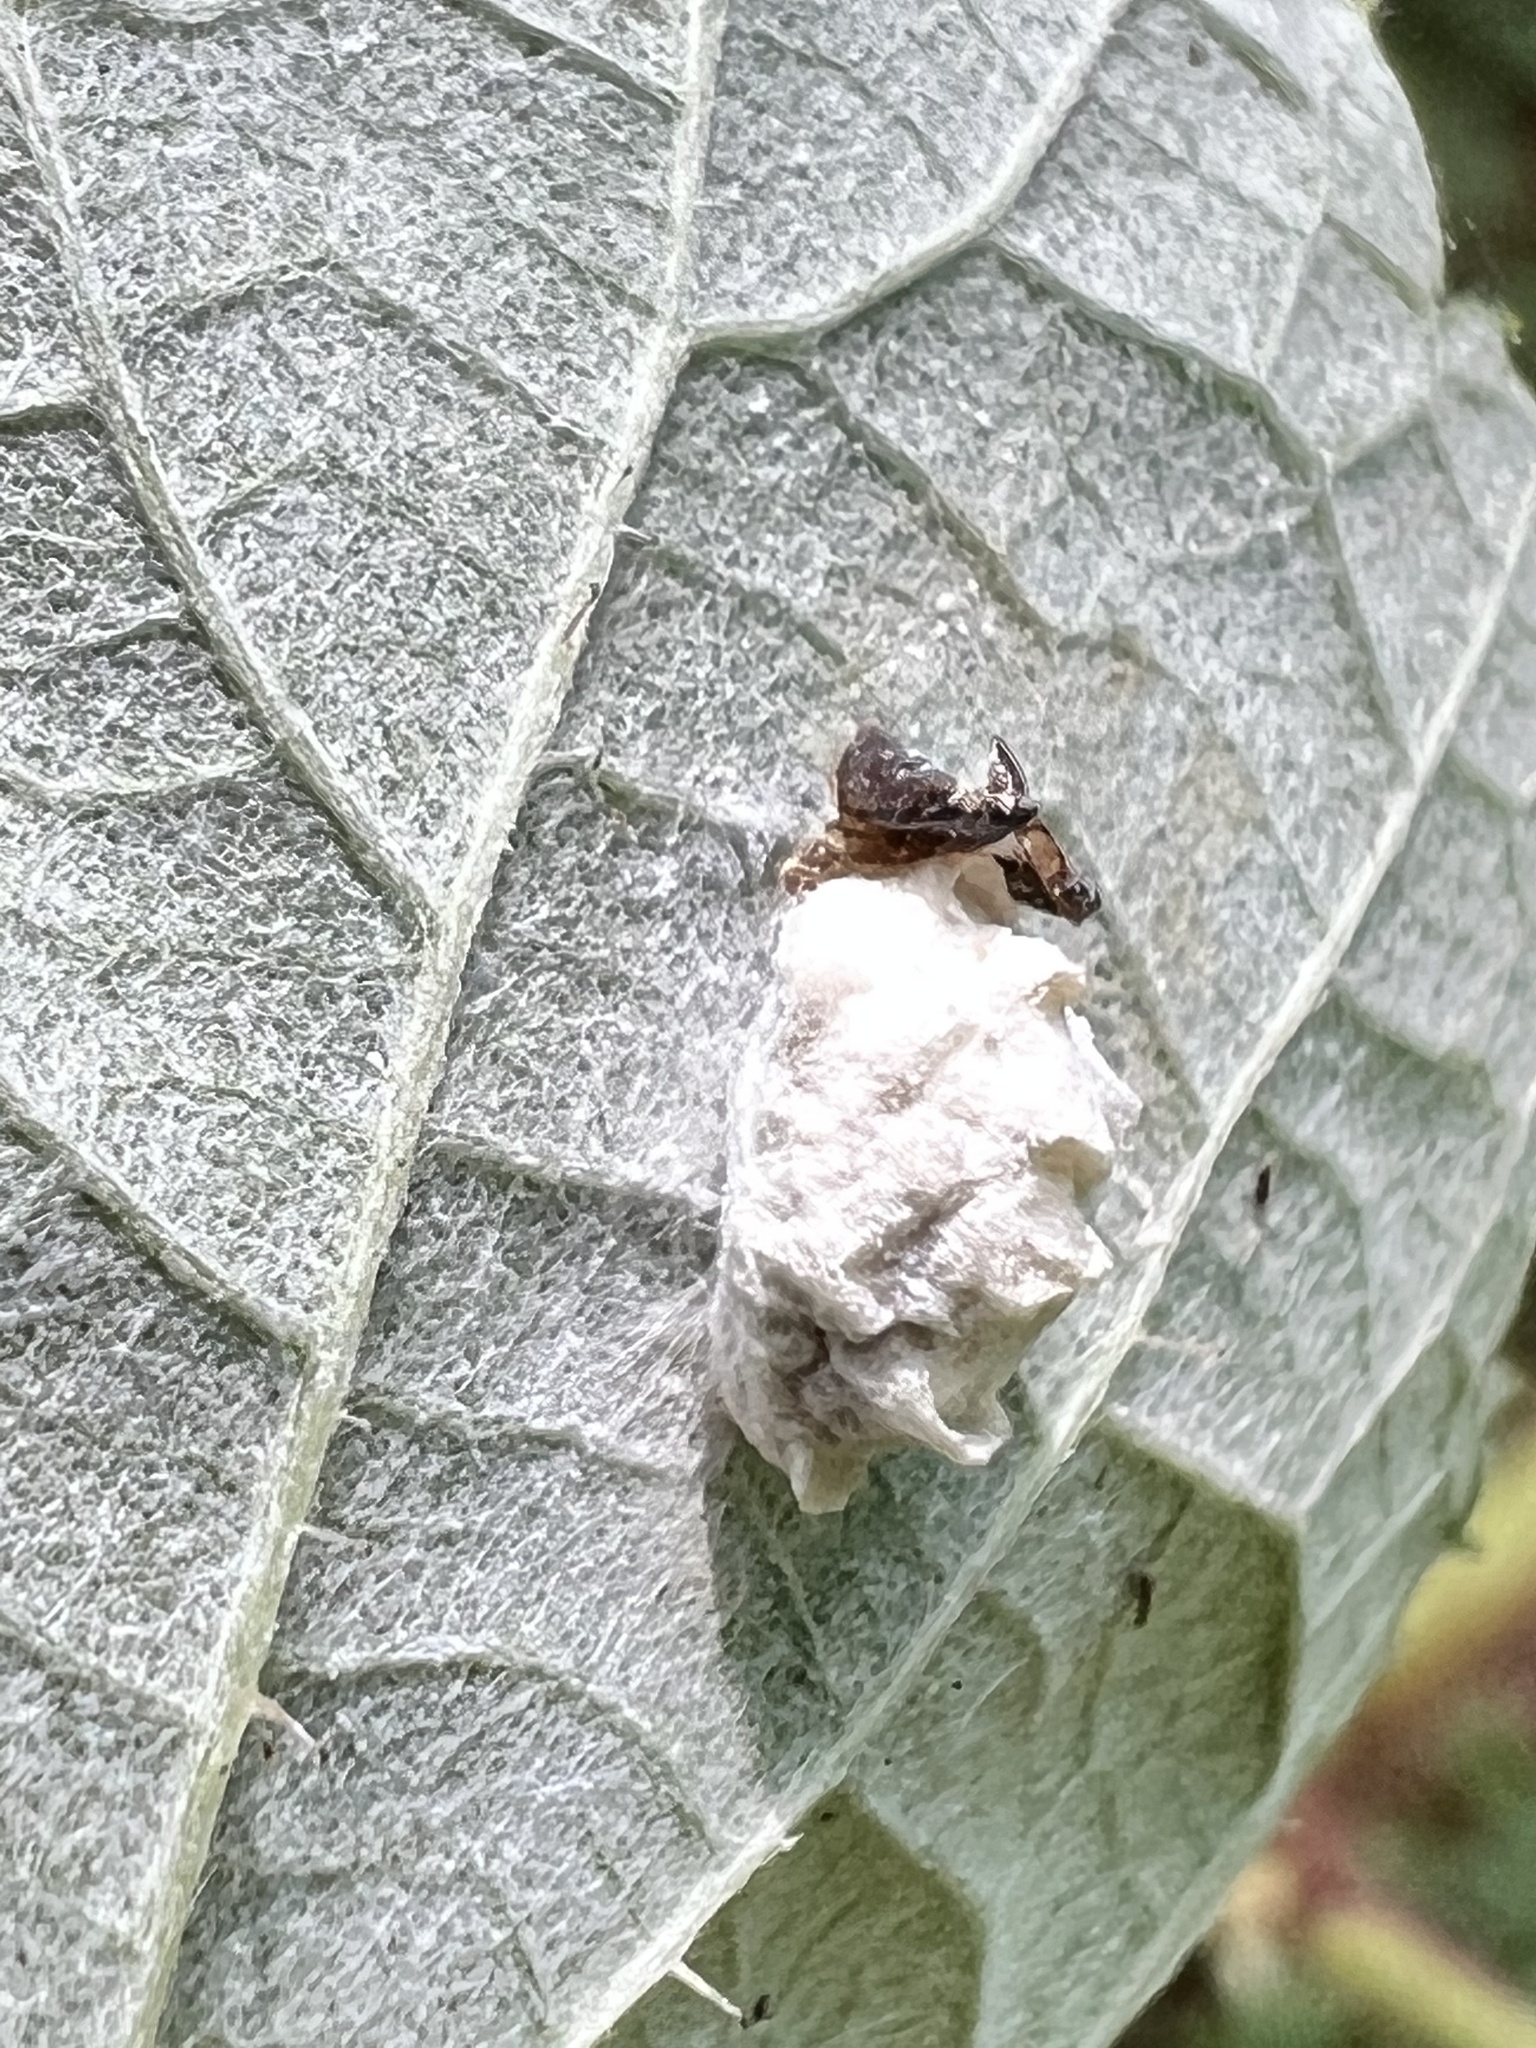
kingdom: Animalia
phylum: Arthropoda
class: Insecta
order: Lepidoptera
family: Epipyropidae
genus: Fulgoraecia
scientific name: Fulgoraecia exigua
